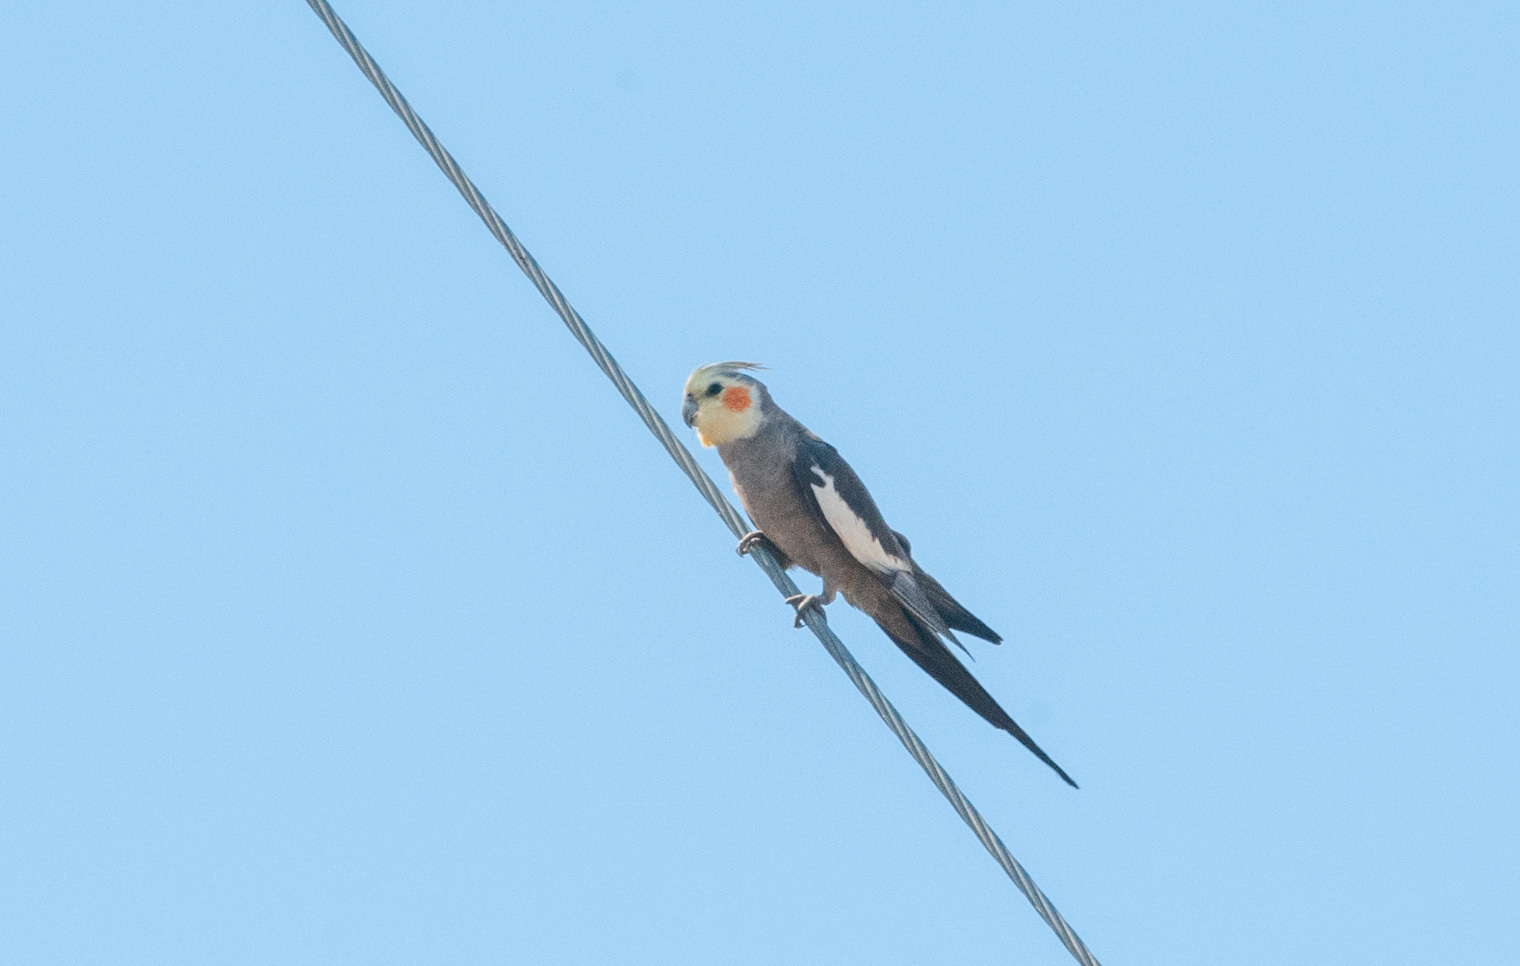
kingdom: Animalia
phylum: Chordata
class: Aves
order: Psittaciformes
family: Psittacidae
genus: Nymphicus
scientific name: Nymphicus hollandicus
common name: Cockatiel
